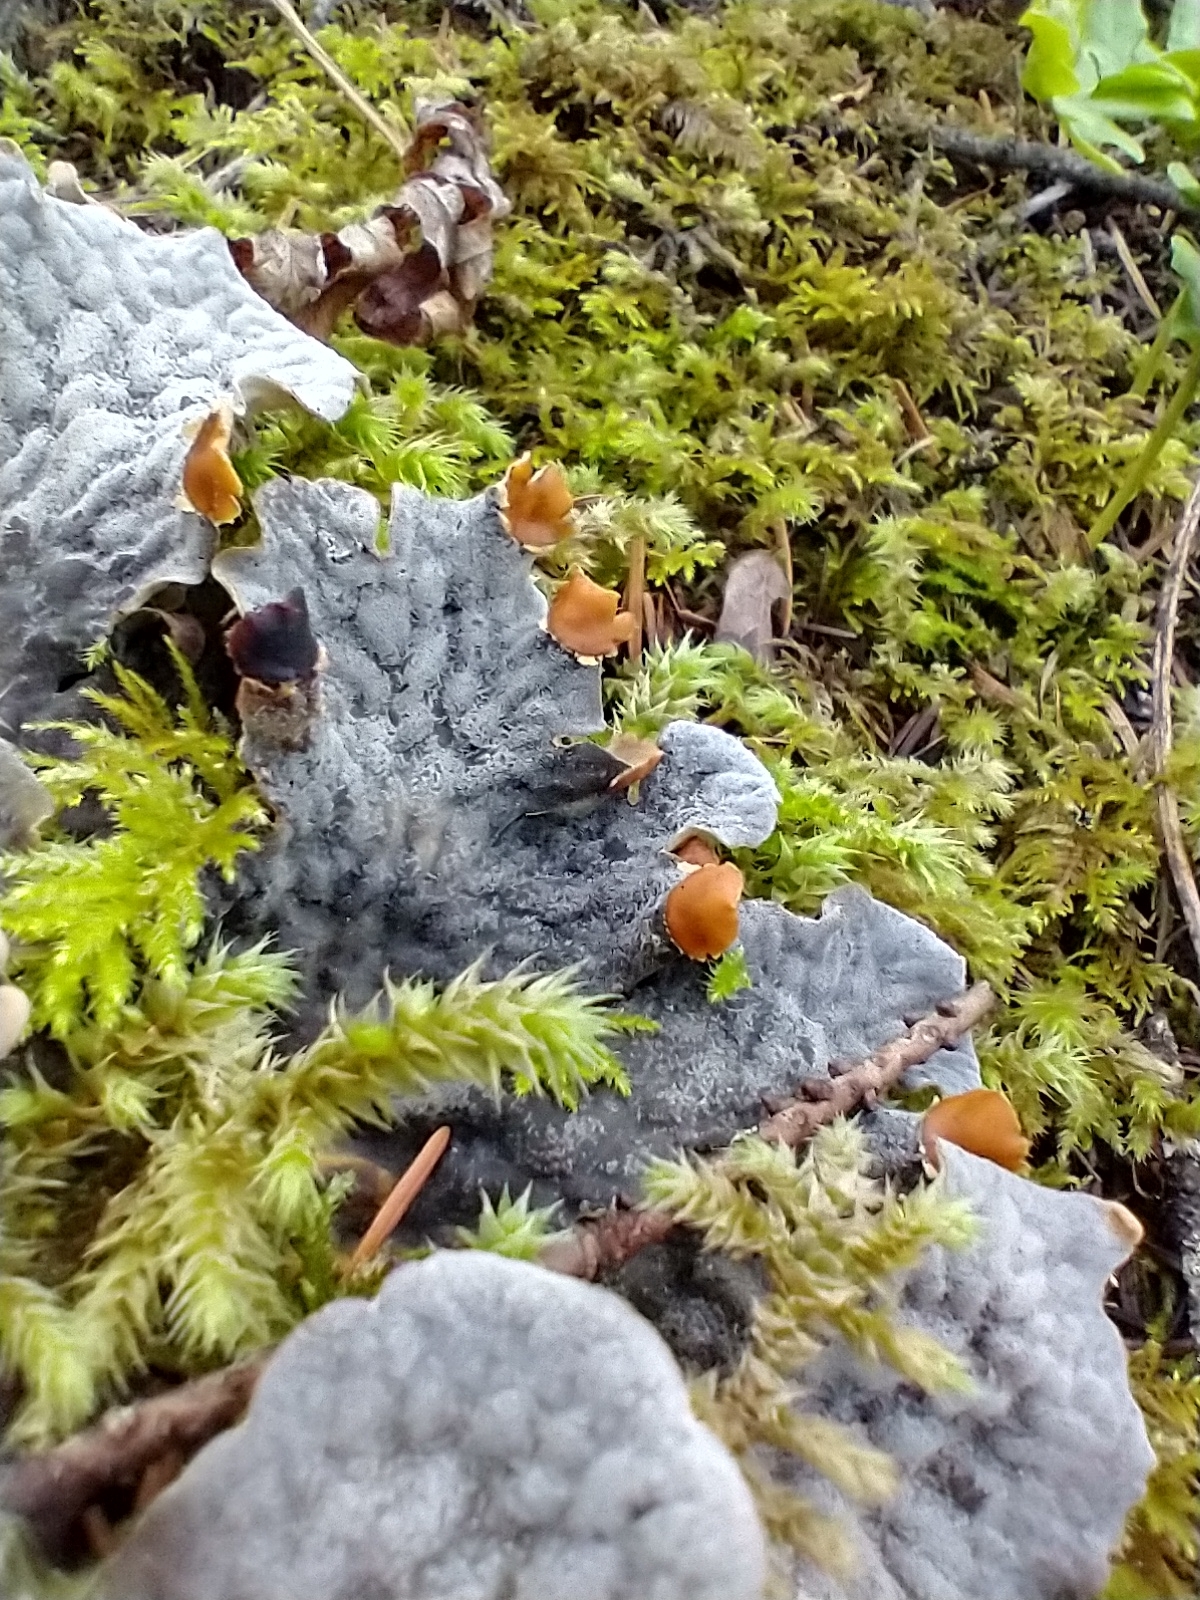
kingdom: Fungi
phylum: Ascomycota
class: Lecanoromycetes
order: Peltigerales
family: Peltigeraceae
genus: Peltigera
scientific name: Peltigera membranacea
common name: Membranous pelt lichen
